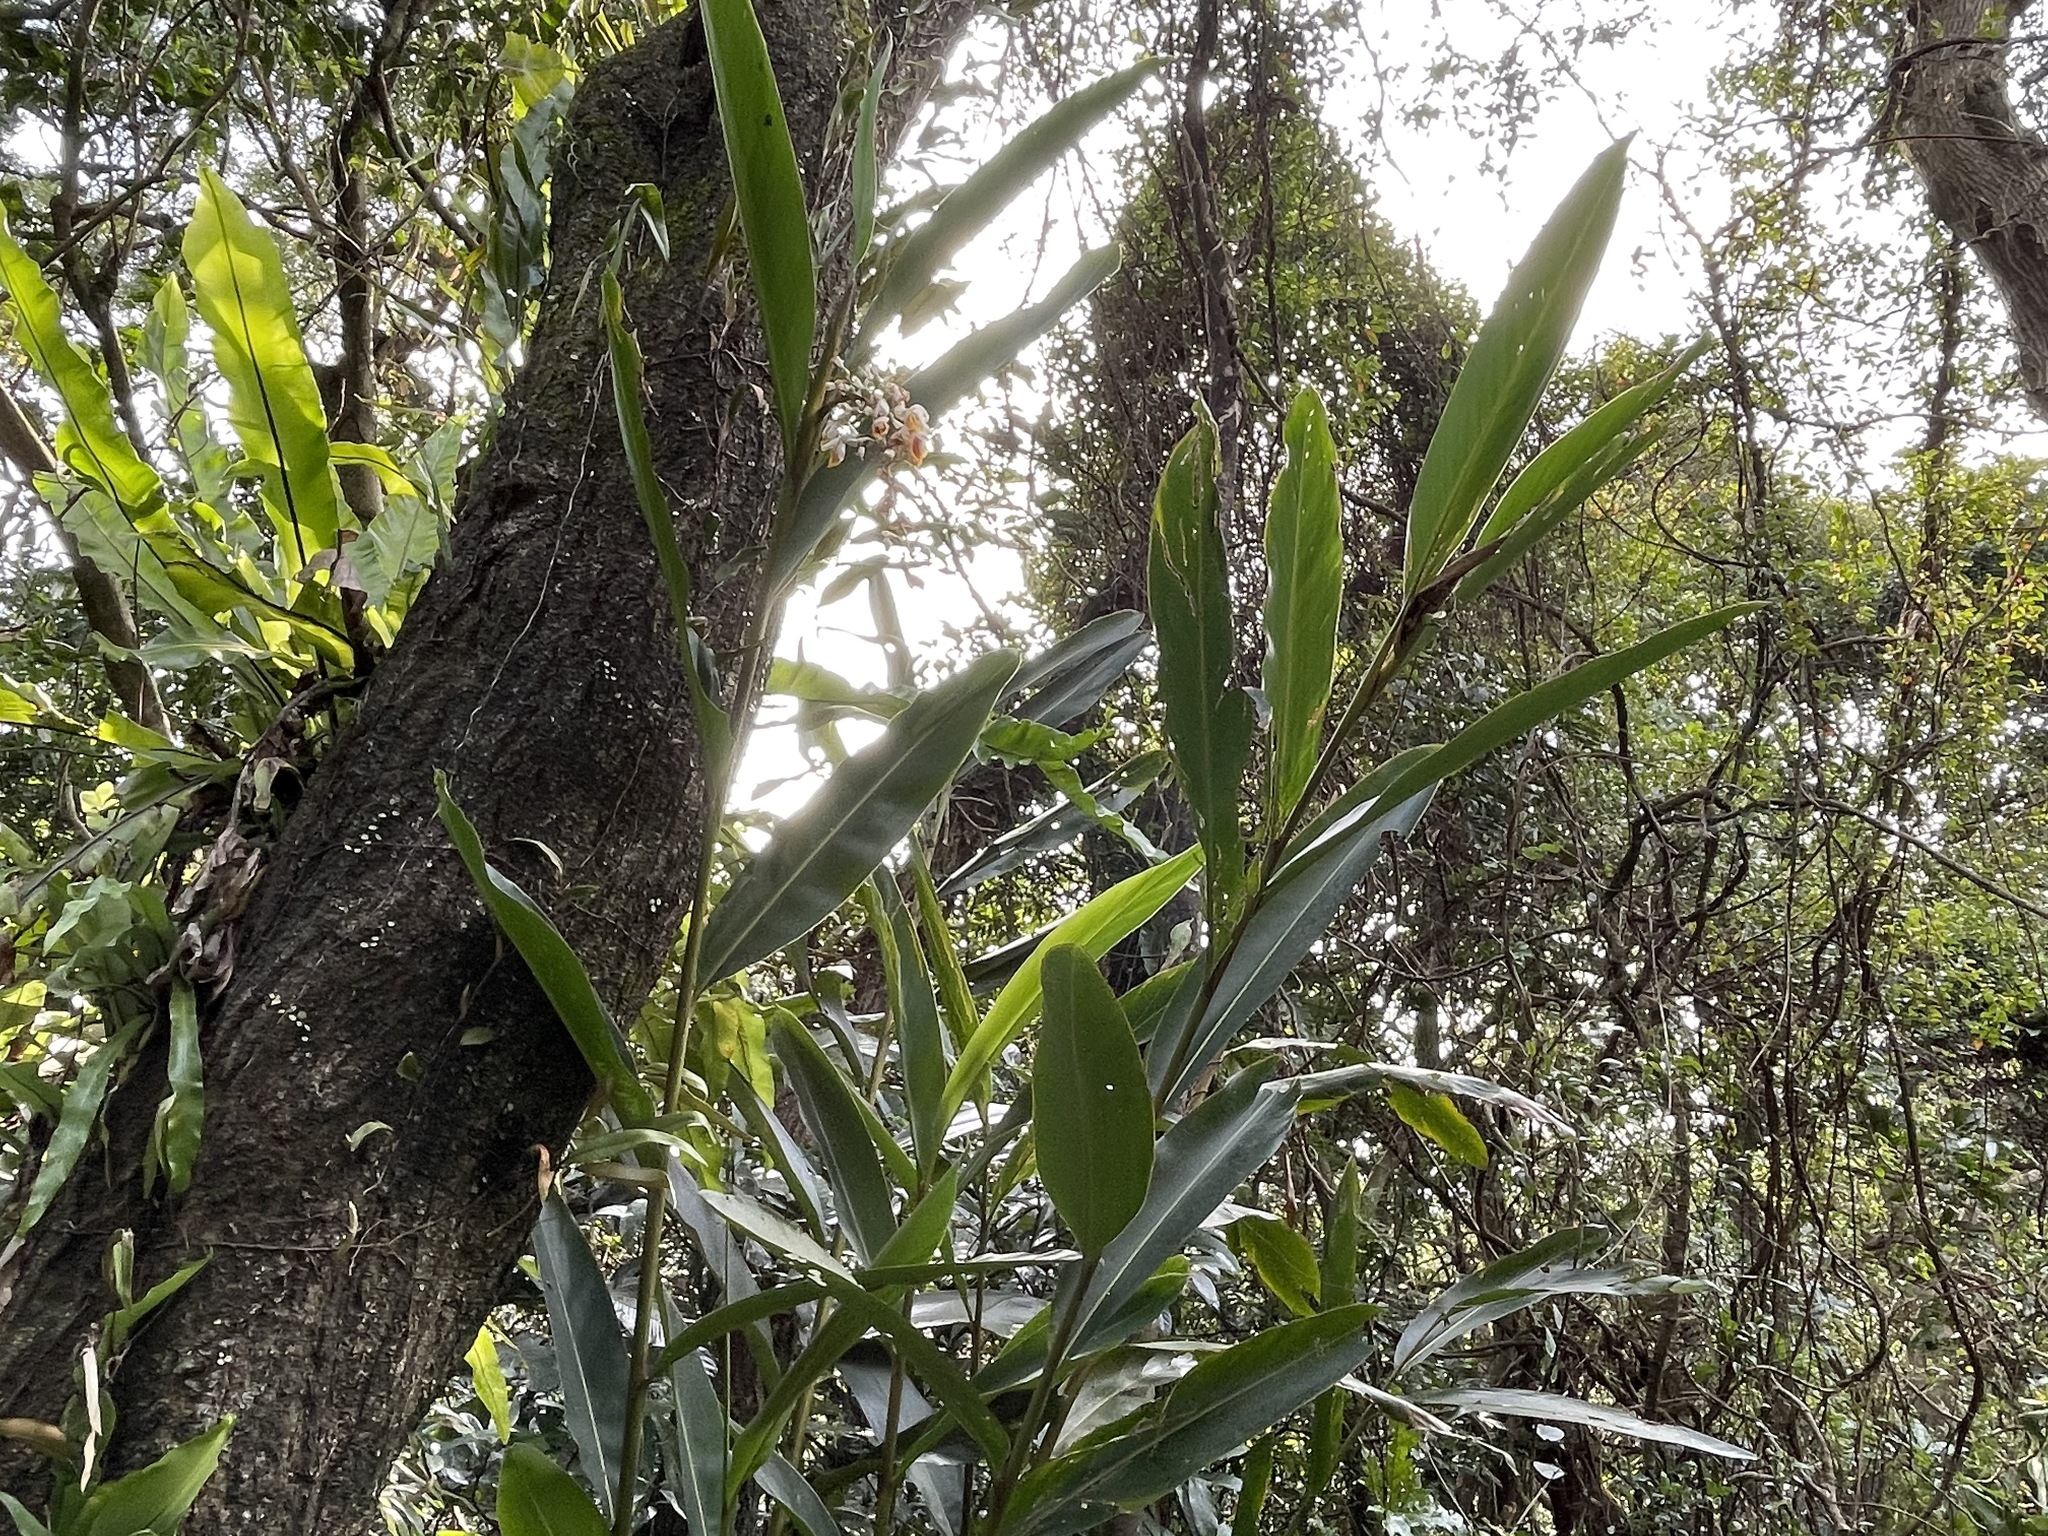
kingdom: Plantae
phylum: Tracheophyta
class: Liliopsida
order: Zingiberales
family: Zingiberaceae
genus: Alpinia
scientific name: Alpinia zerumbet
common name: Shellplant
